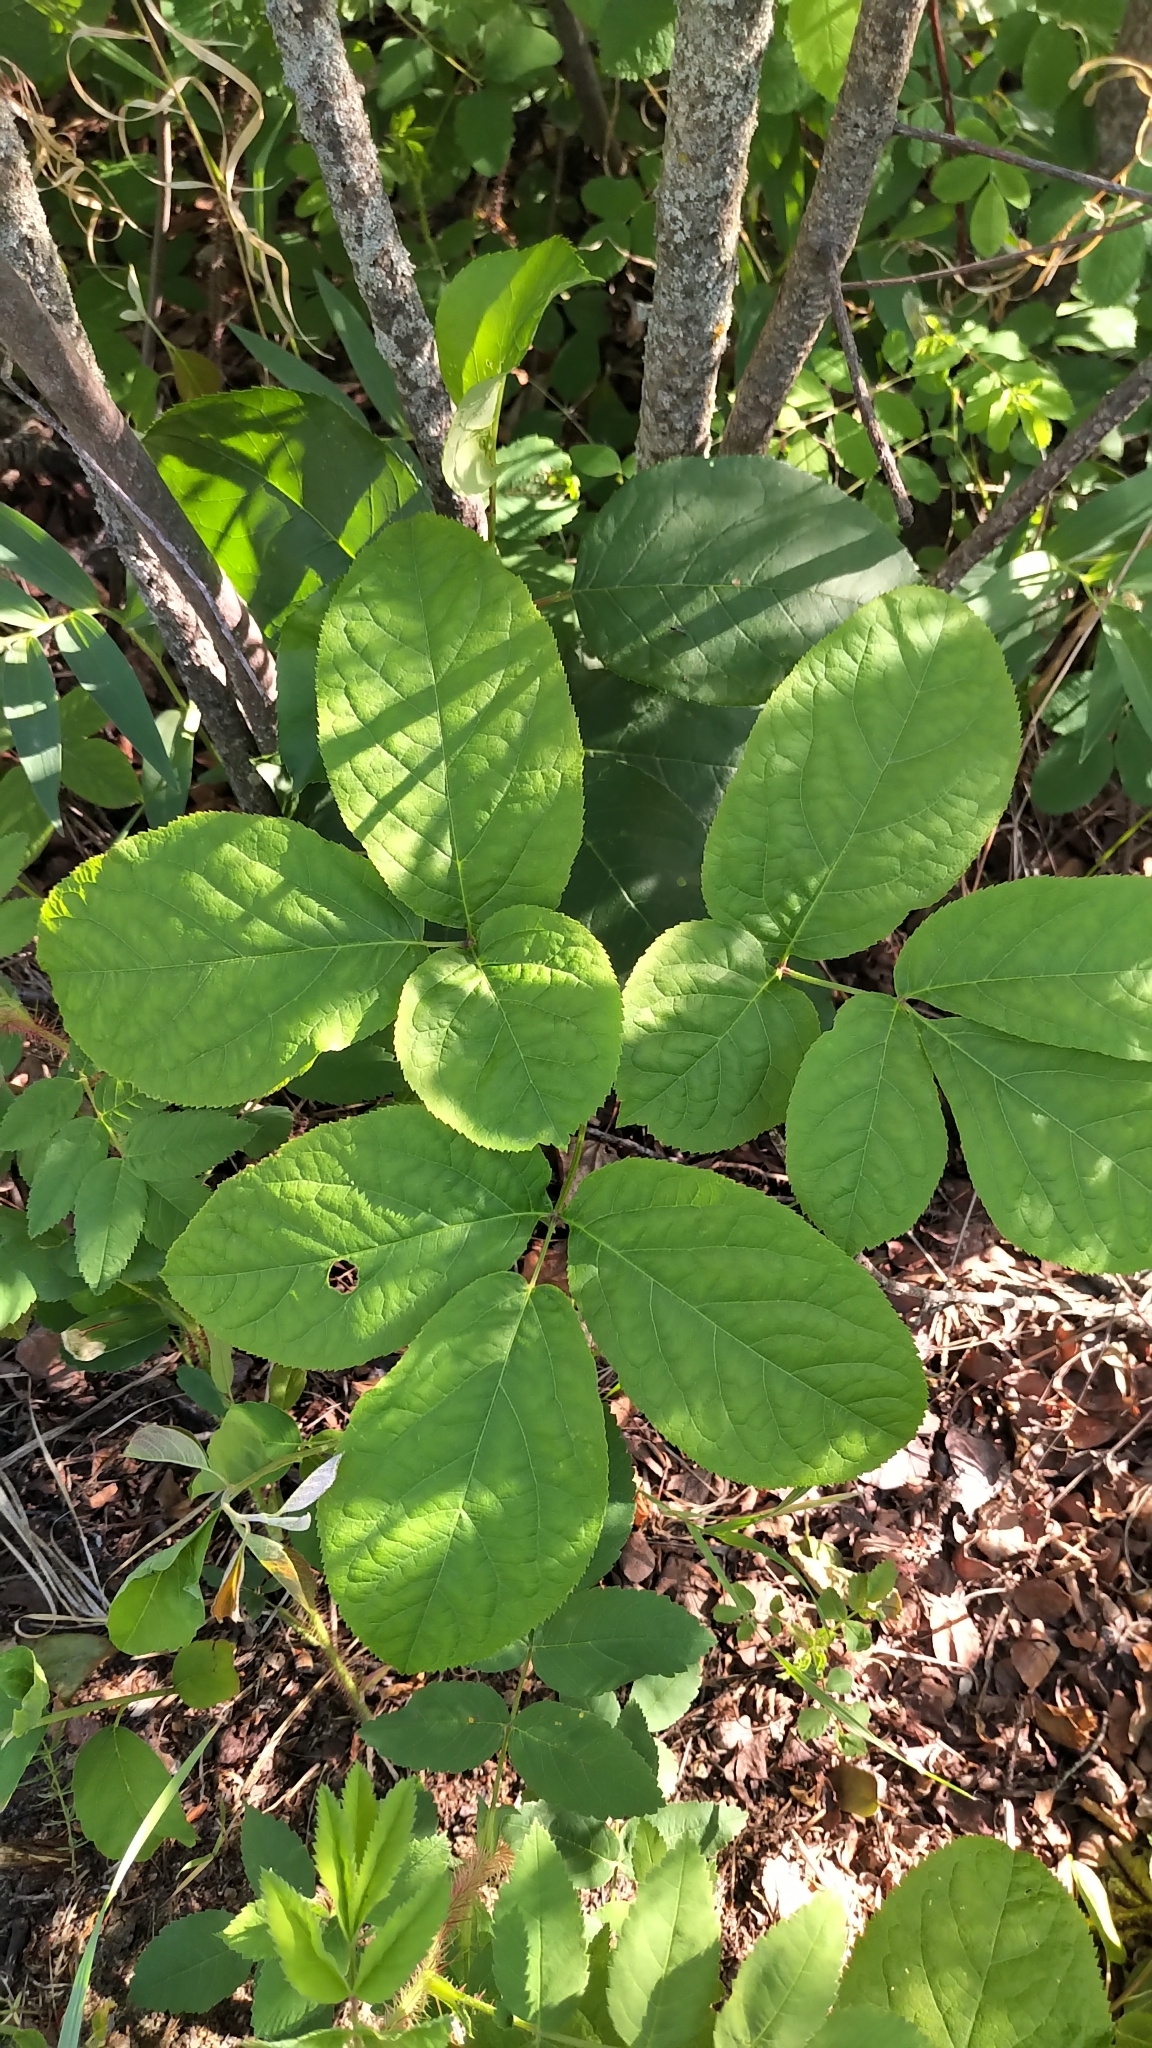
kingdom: Plantae
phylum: Tracheophyta
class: Magnoliopsida
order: Apiales
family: Araliaceae
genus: Aralia
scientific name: Aralia nudicaulis
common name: Wild sarsaparilla
